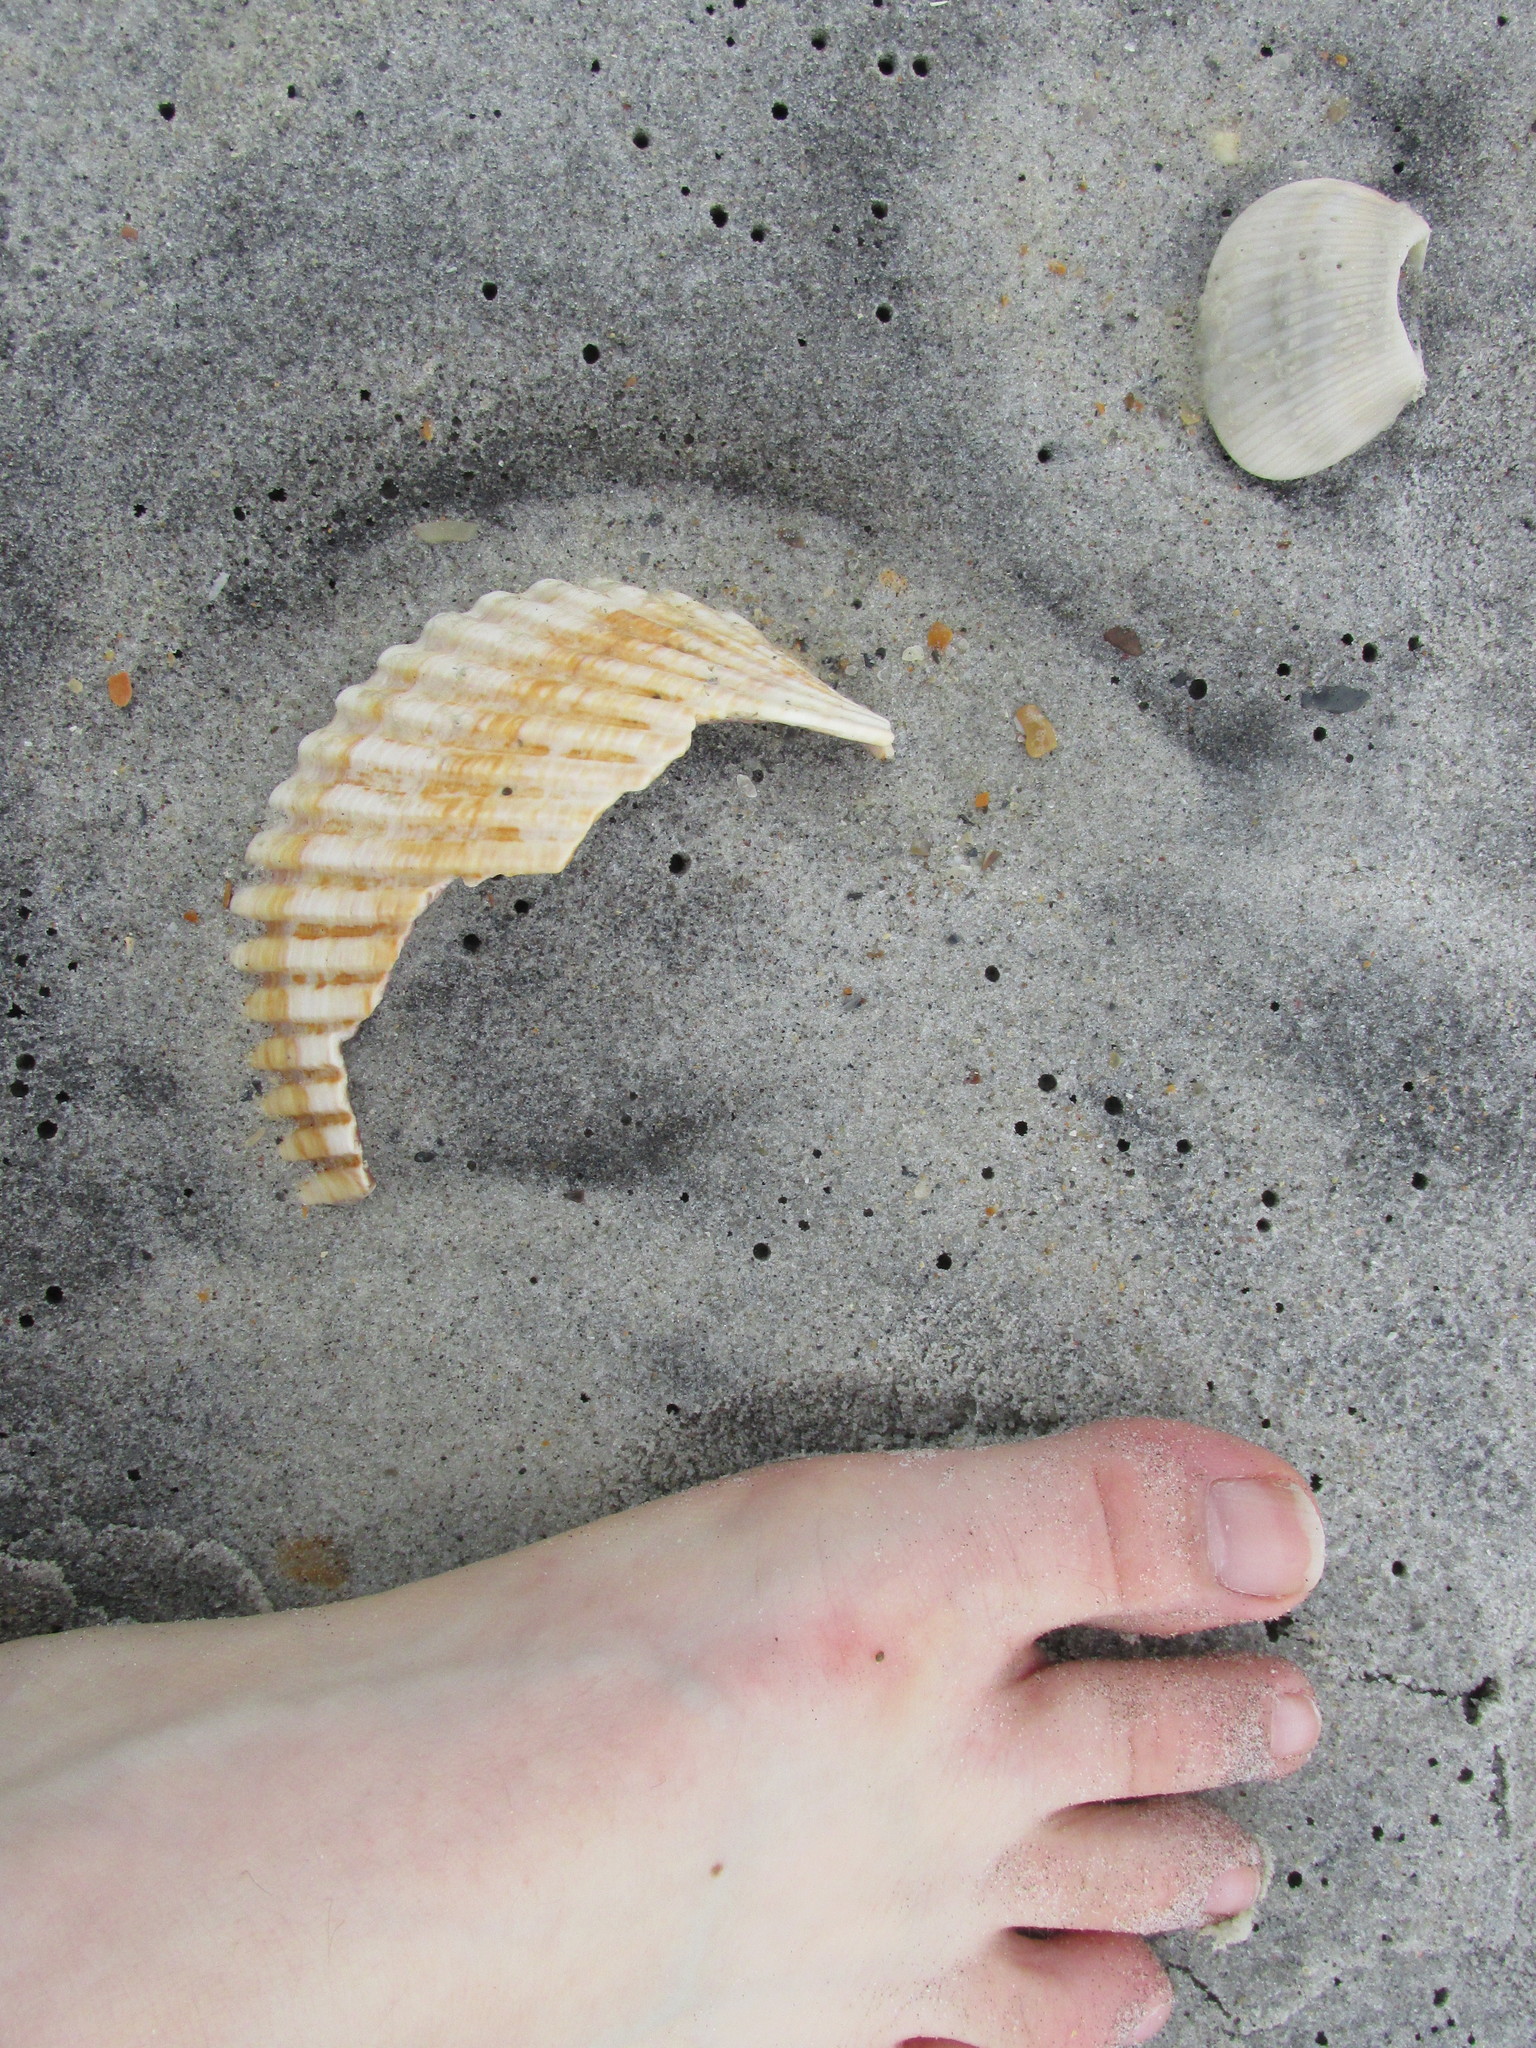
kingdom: Animalia
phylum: Mollusca
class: Bivalvia
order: Cardiida
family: Cardiidae
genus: Dinocardium
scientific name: Dinocardium robustum
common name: Atlantic giant cockle
